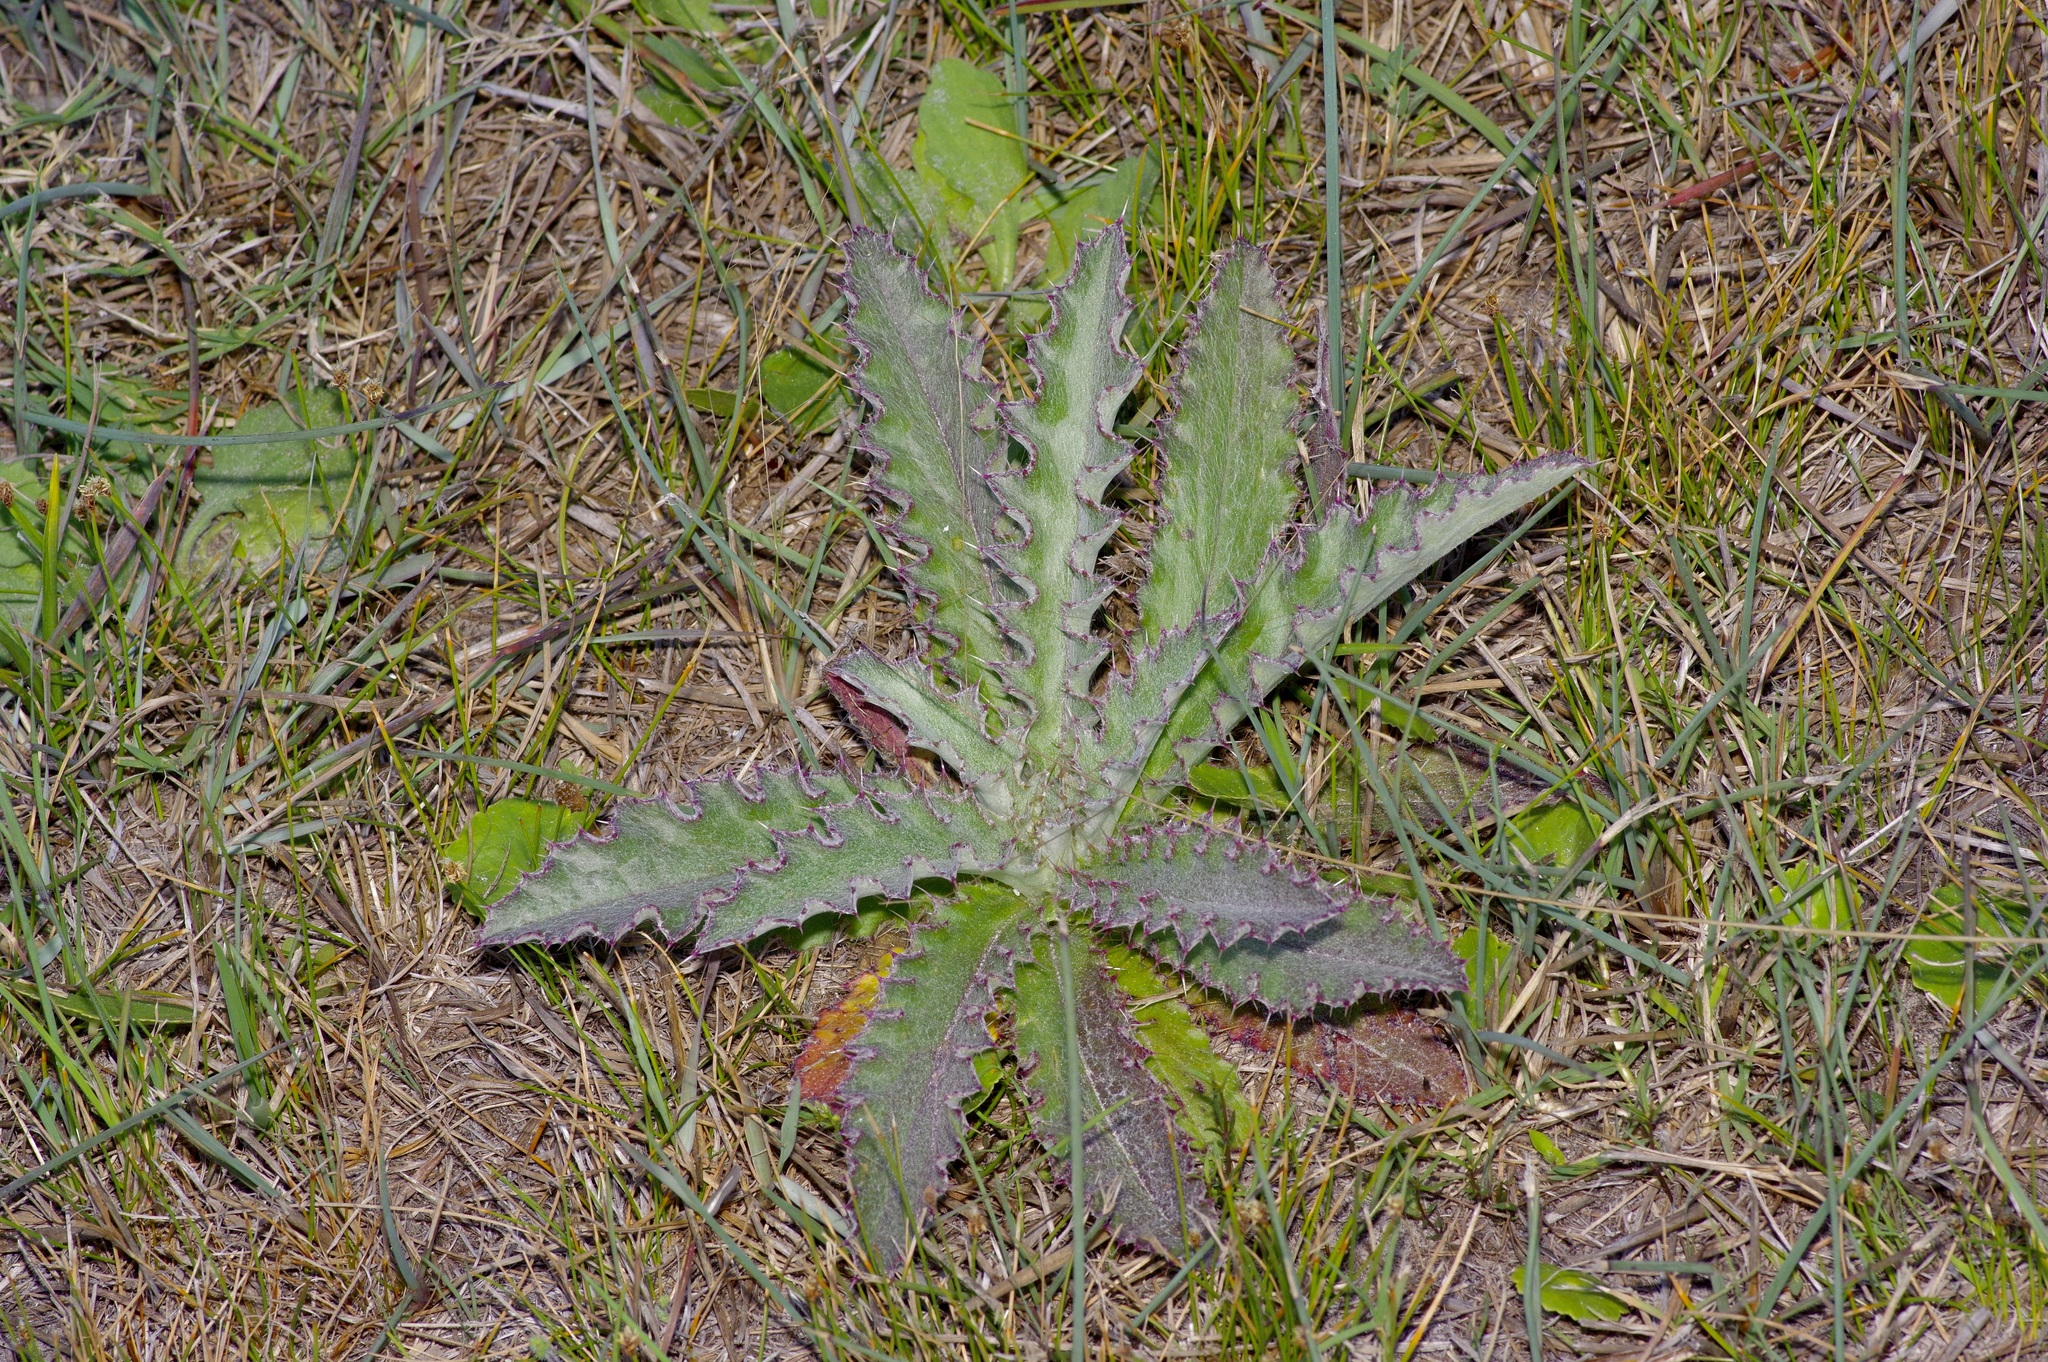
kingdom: Plantae
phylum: Tracheophyta
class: Magnoliopsida
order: Asterales
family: Asteraceae
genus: Cirsium
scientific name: Cirsium horridulum
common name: Bristly thistle
